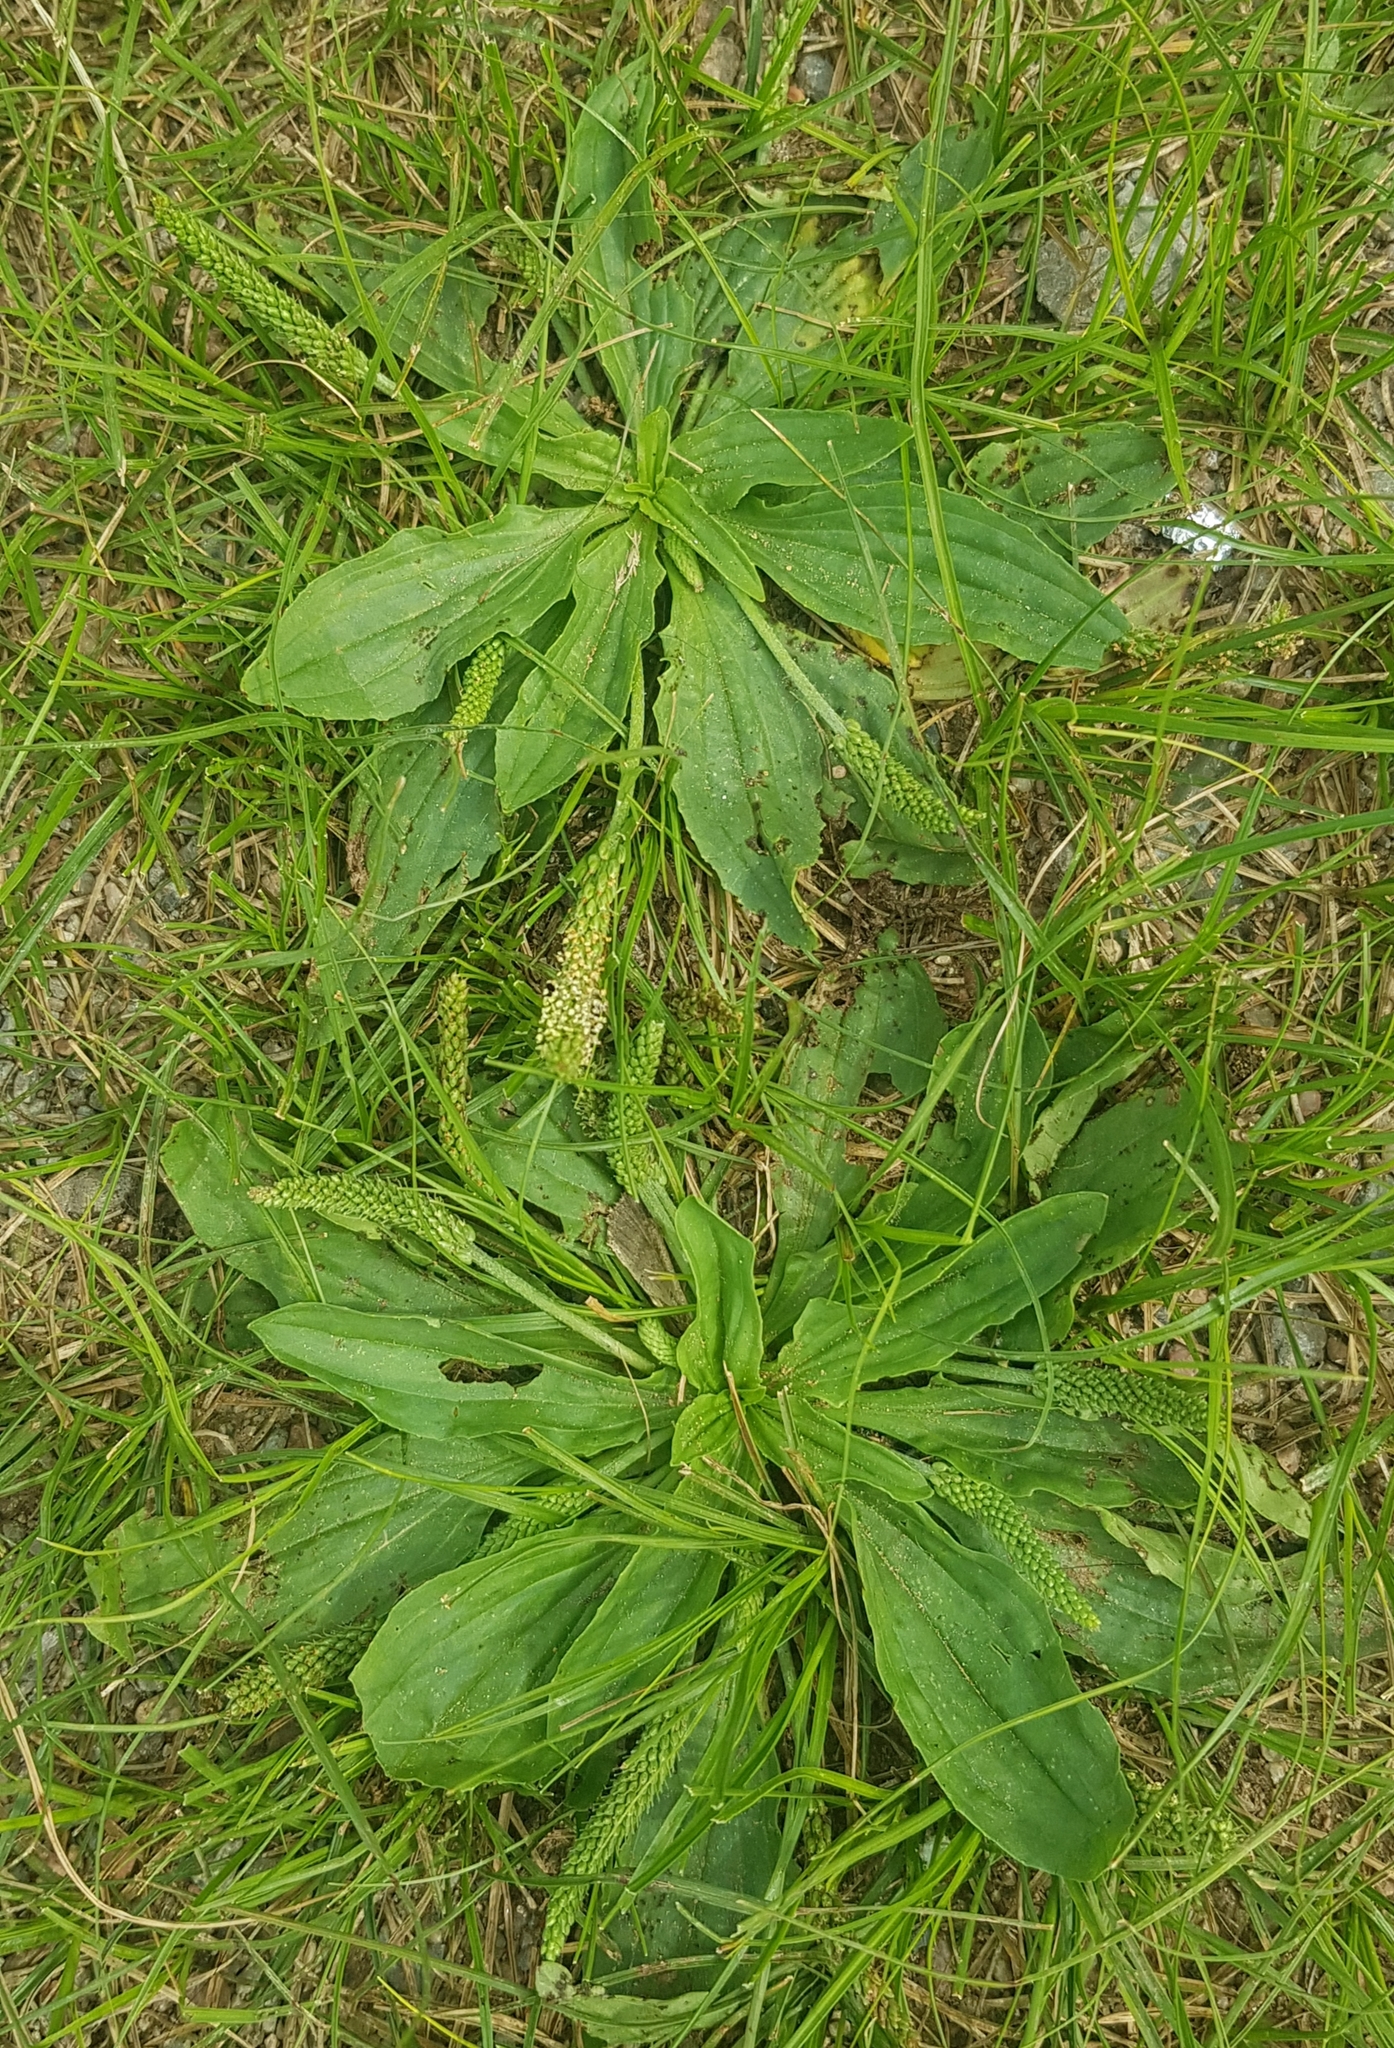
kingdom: Plantae
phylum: Tracheophyta
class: Magnoliopsida
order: Lamiales
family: Plantaginaceae
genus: Plantago
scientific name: Plantago depressa
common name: Depressed plantain
